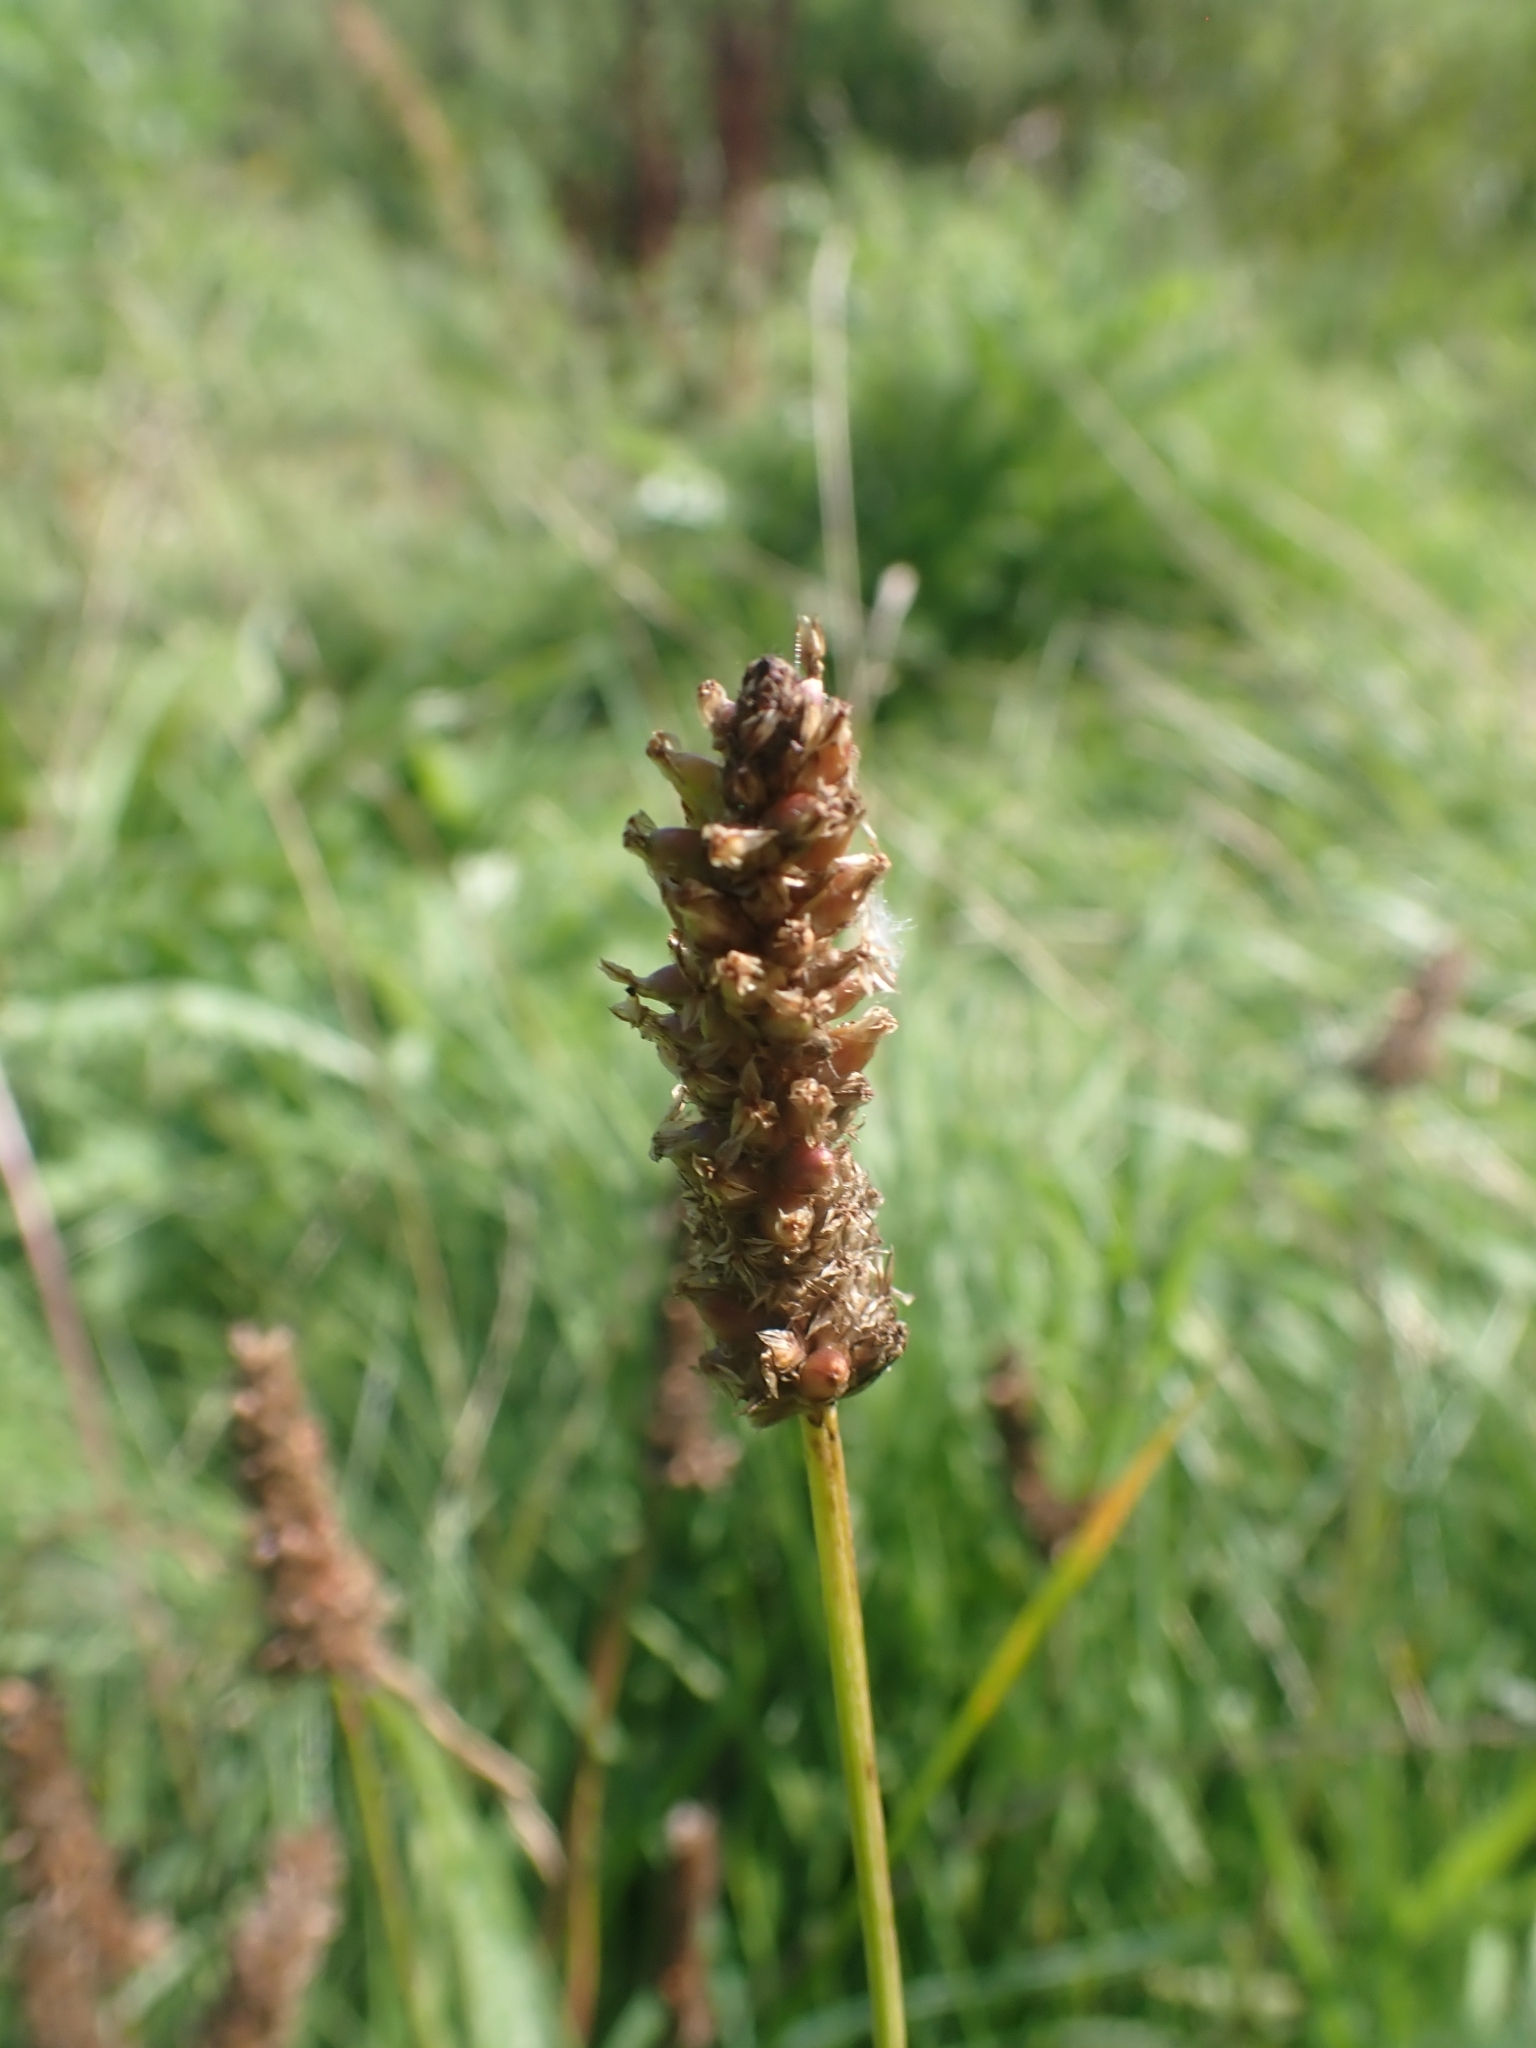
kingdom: Plantae
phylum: Tracheophyta
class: Magnoliopsida
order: Lamiales
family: Plantaginaceae
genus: Plantago
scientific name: Plantago lanceolata
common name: Ribwort plantain
